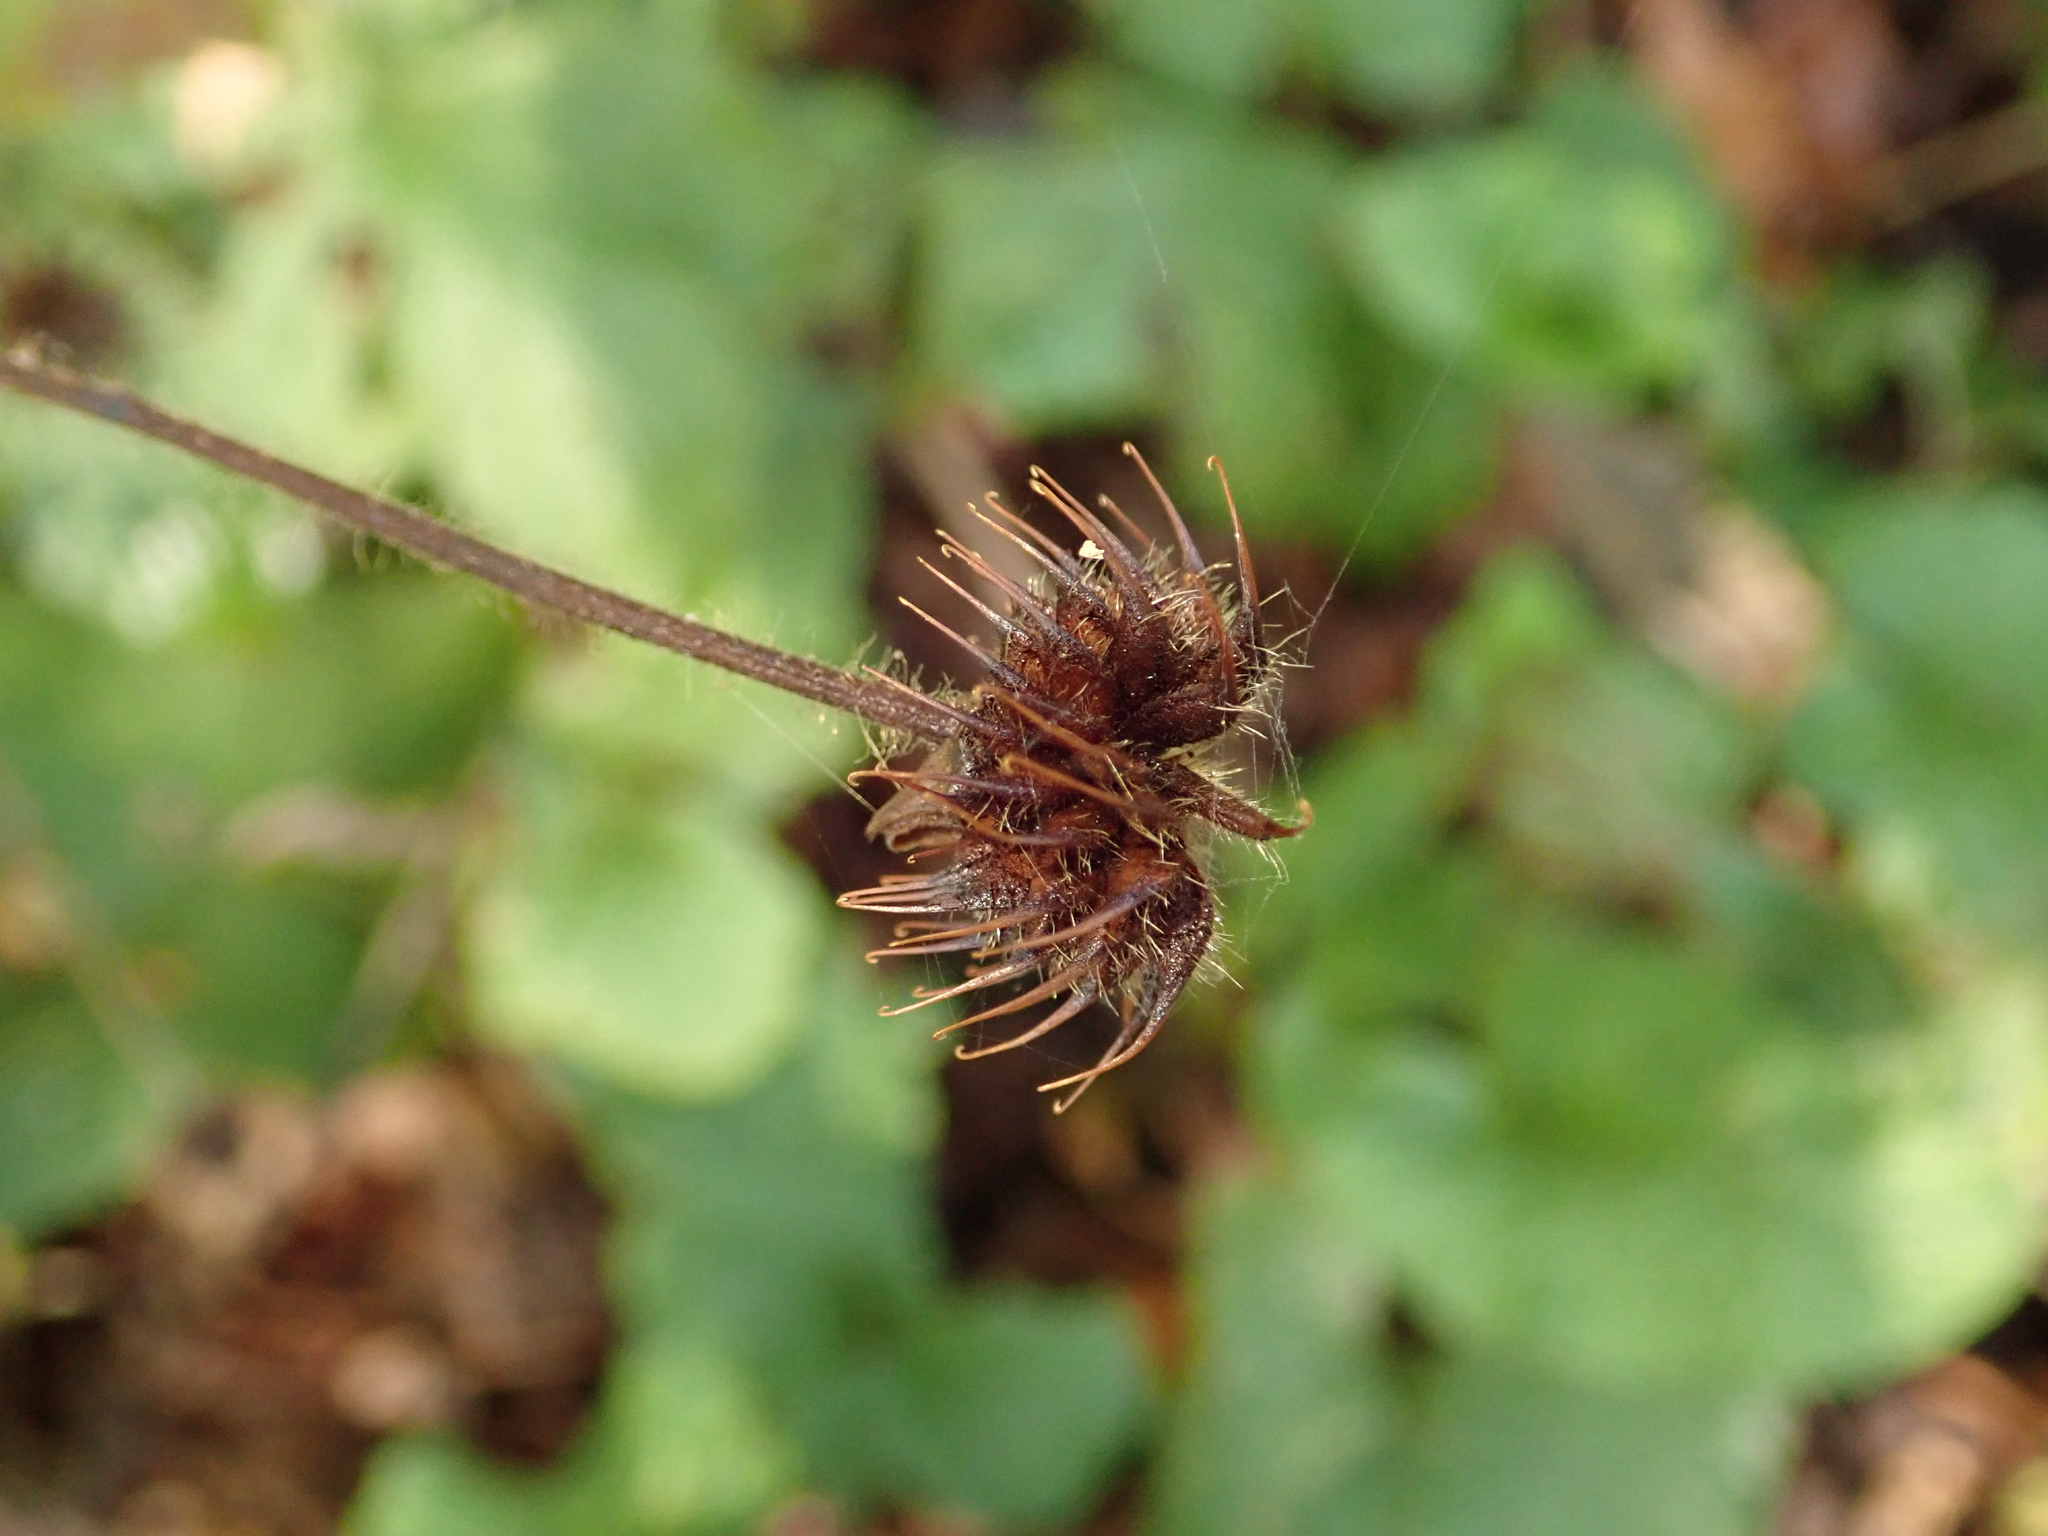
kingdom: Plantae
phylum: Tracheophyta
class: Magnoliopsida
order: Rosales
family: Rosaceae
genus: Geum
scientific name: Geum urbanum
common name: Wood avens
